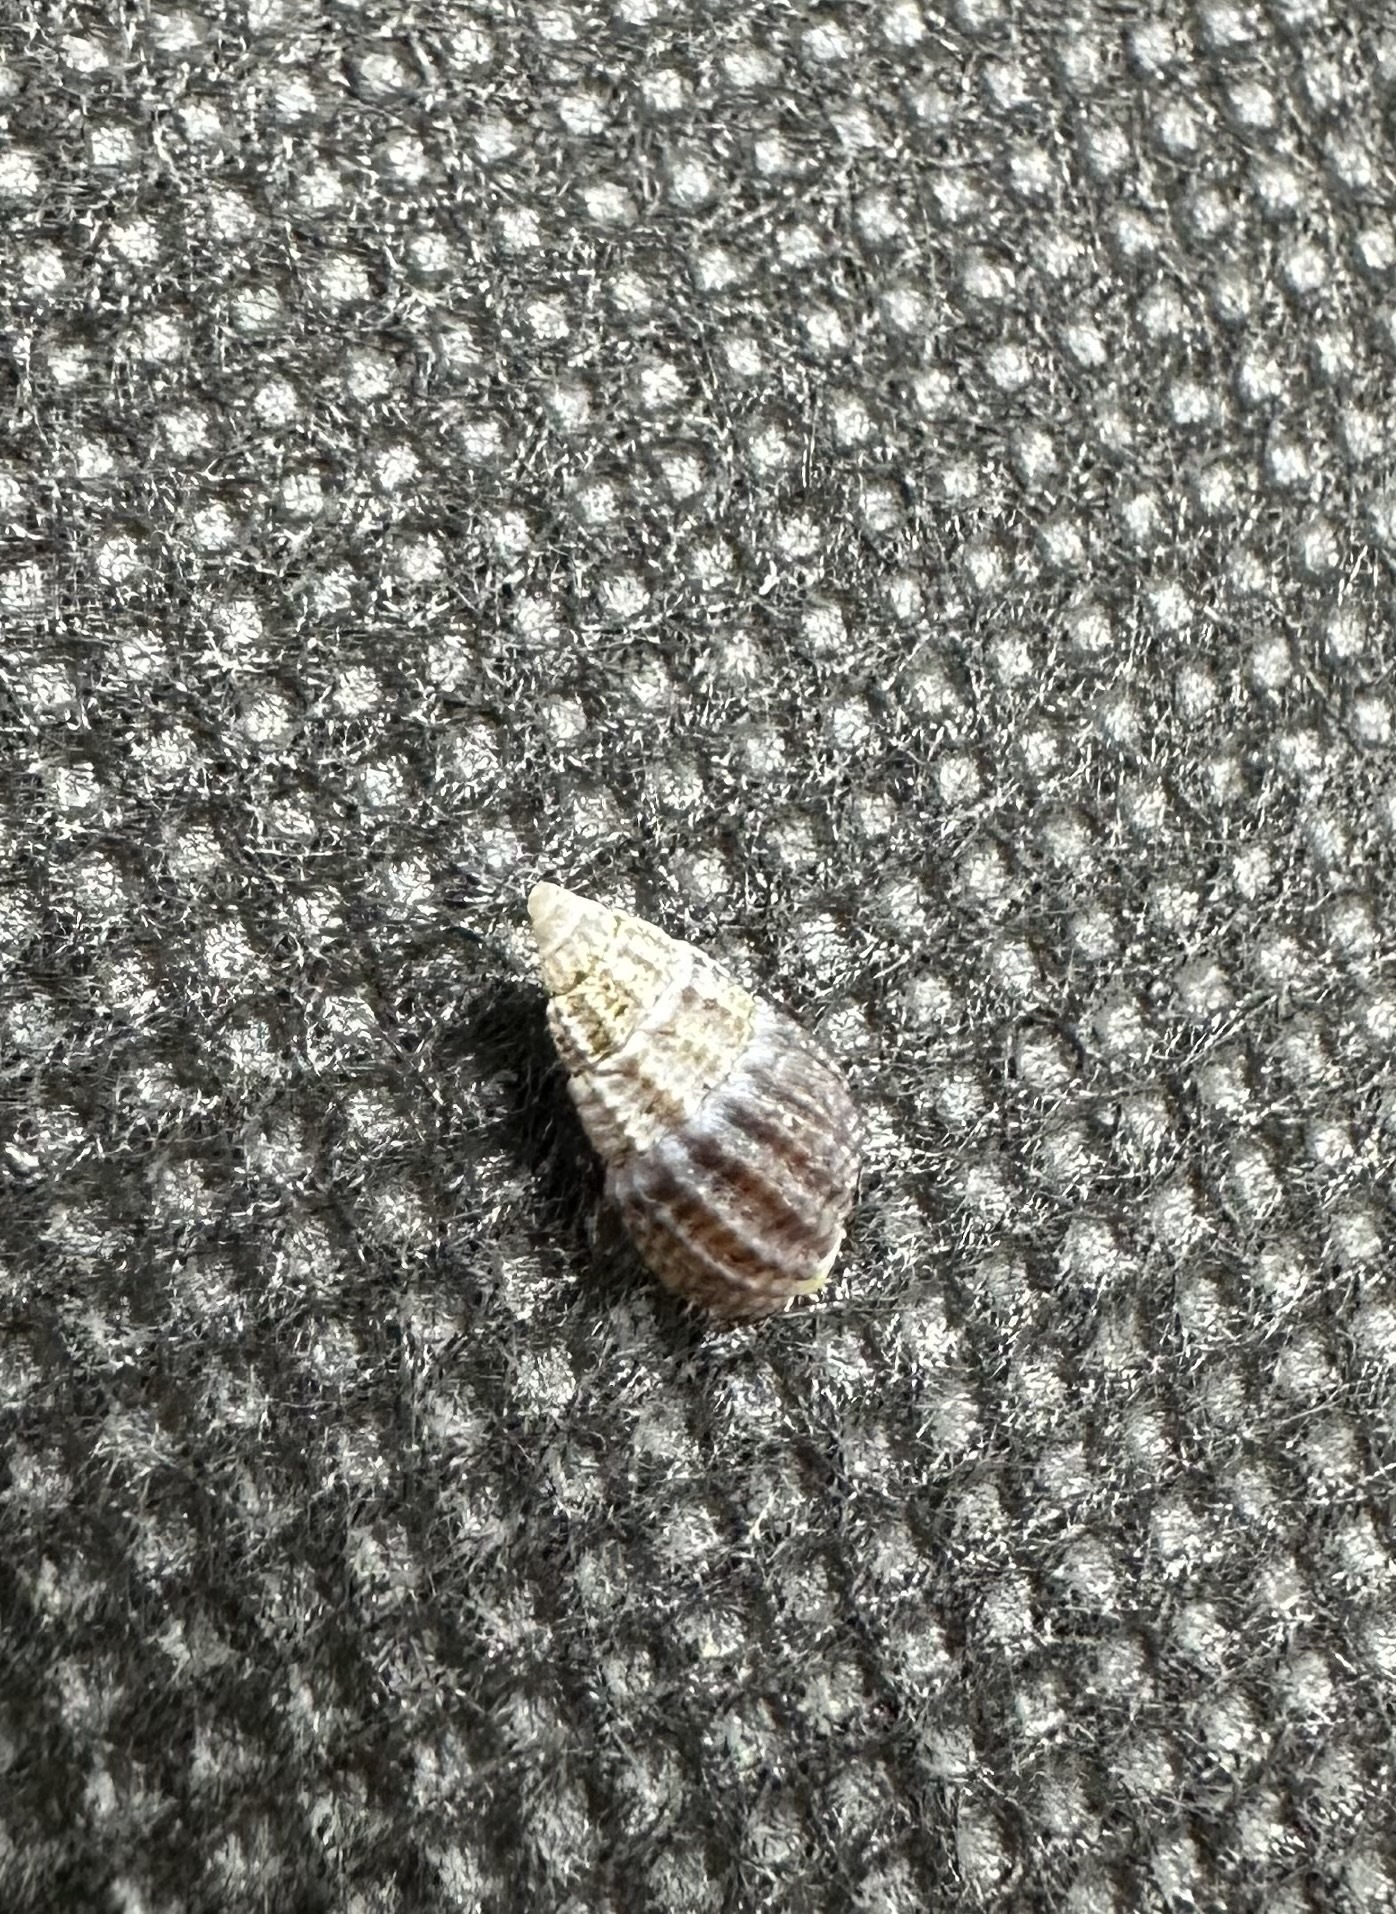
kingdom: Animalia
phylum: Mollusca
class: Gastropoda
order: Neogastropoda
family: Nassariidae
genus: Ilyanassa
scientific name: Ilyanassa trivittata
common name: Three-line mudsnail
